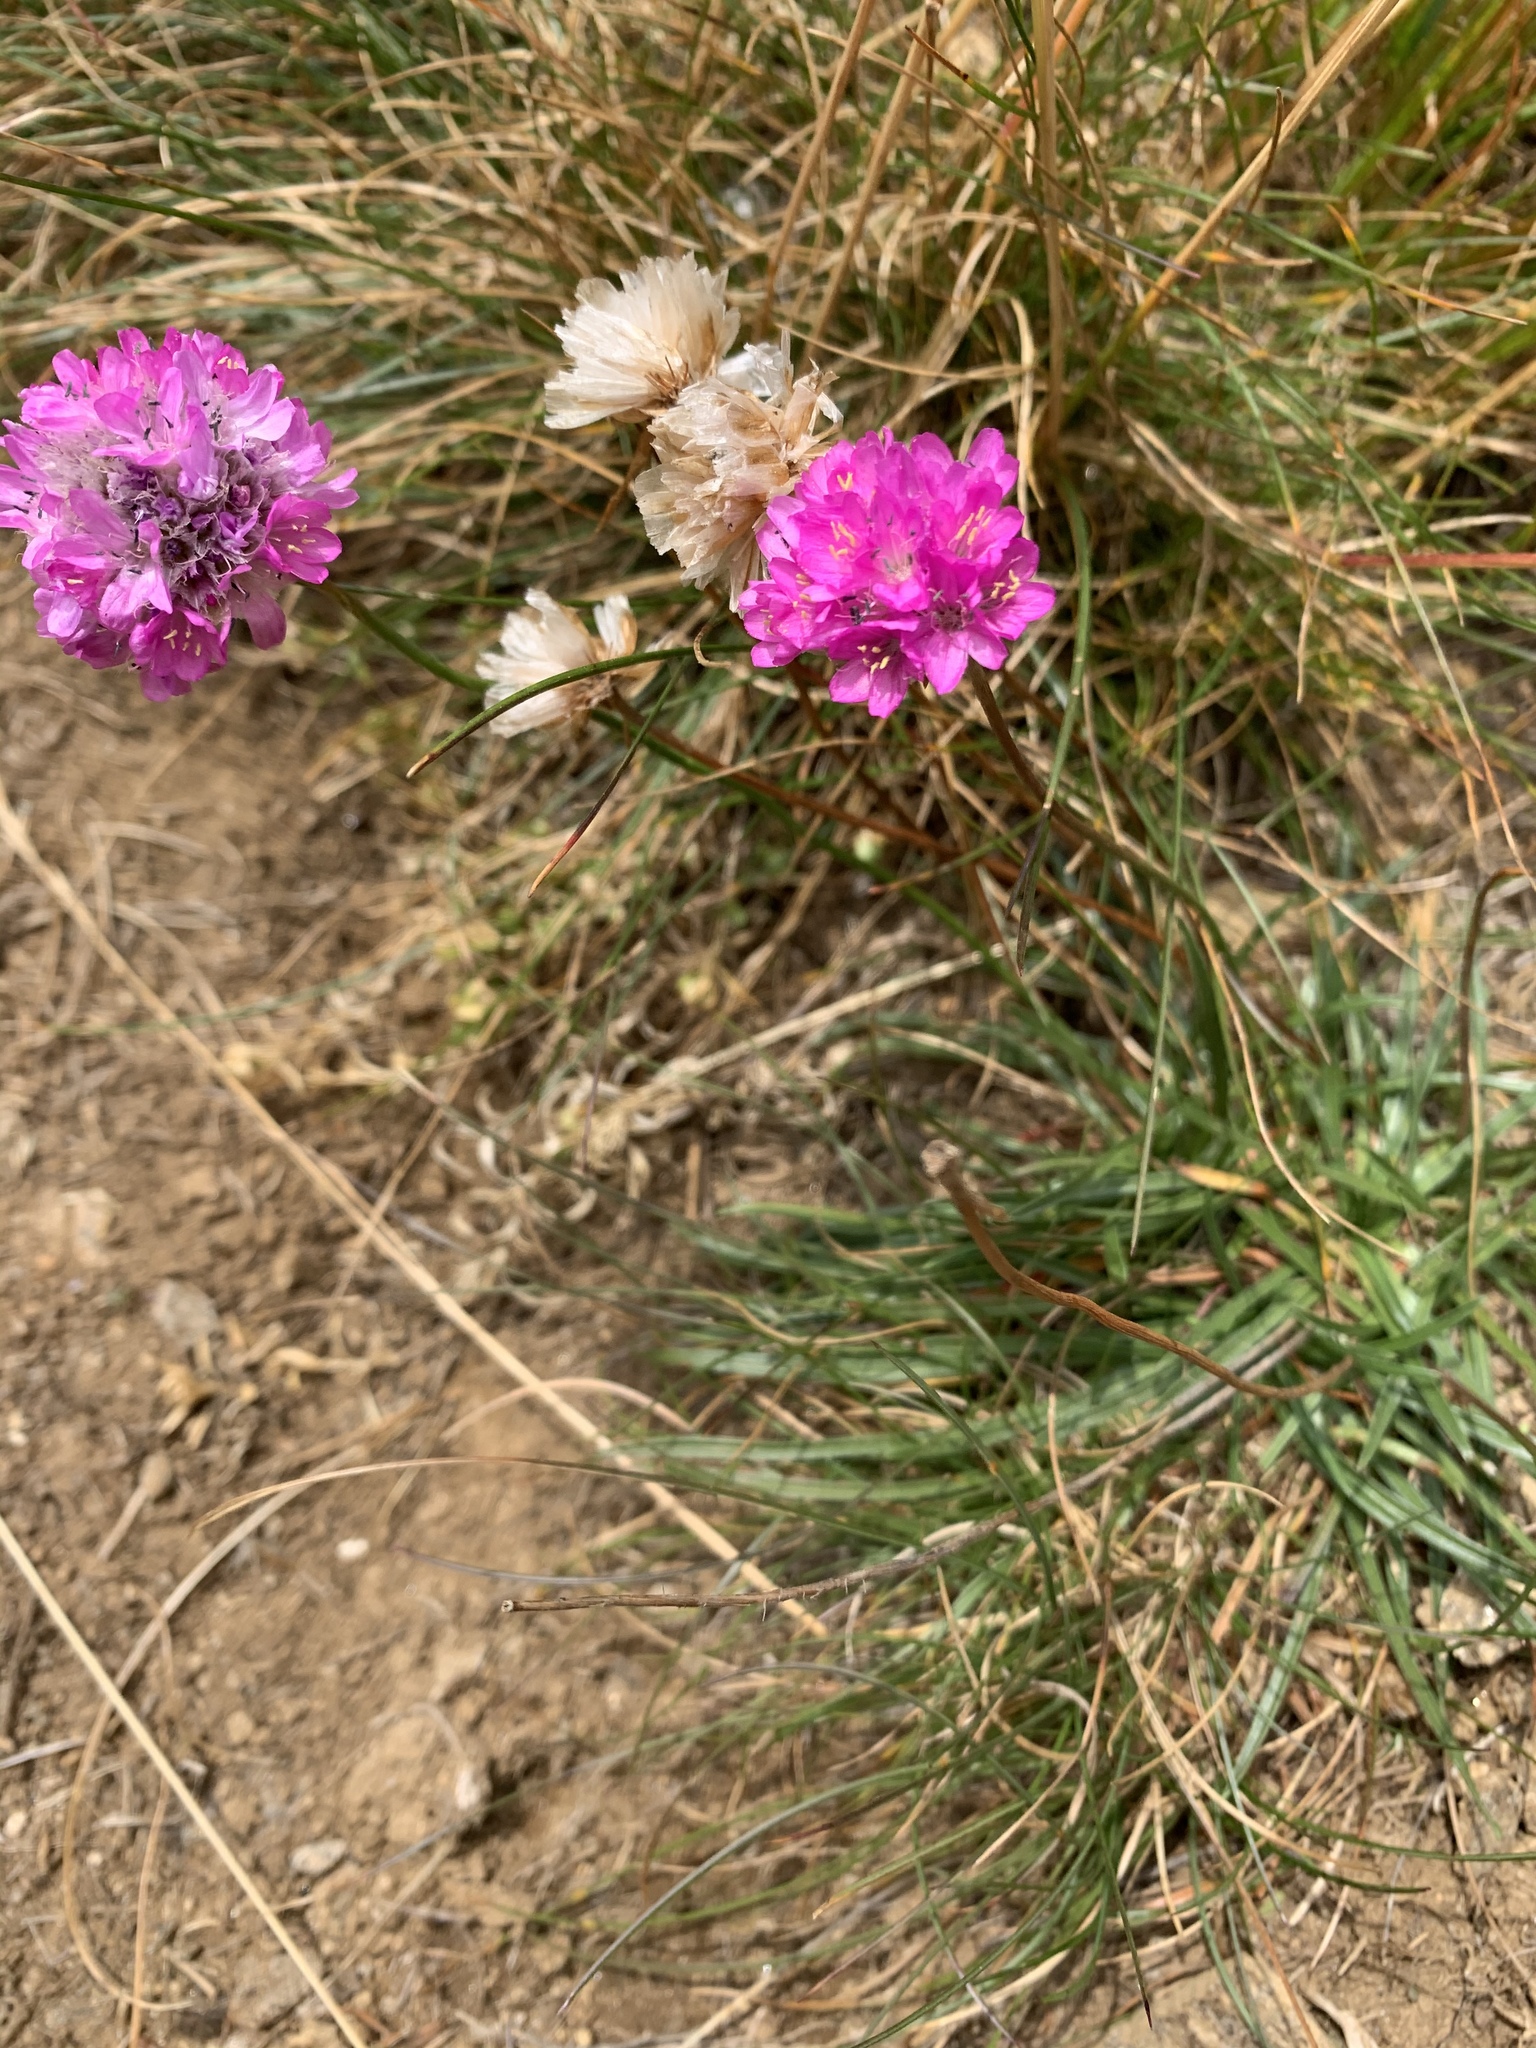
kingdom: Plantae
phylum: Tracheophyta
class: Magnoliopsida
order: Caryophyllales
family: Plumbaginaceae
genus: Armeria
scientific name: Armeria alpina
